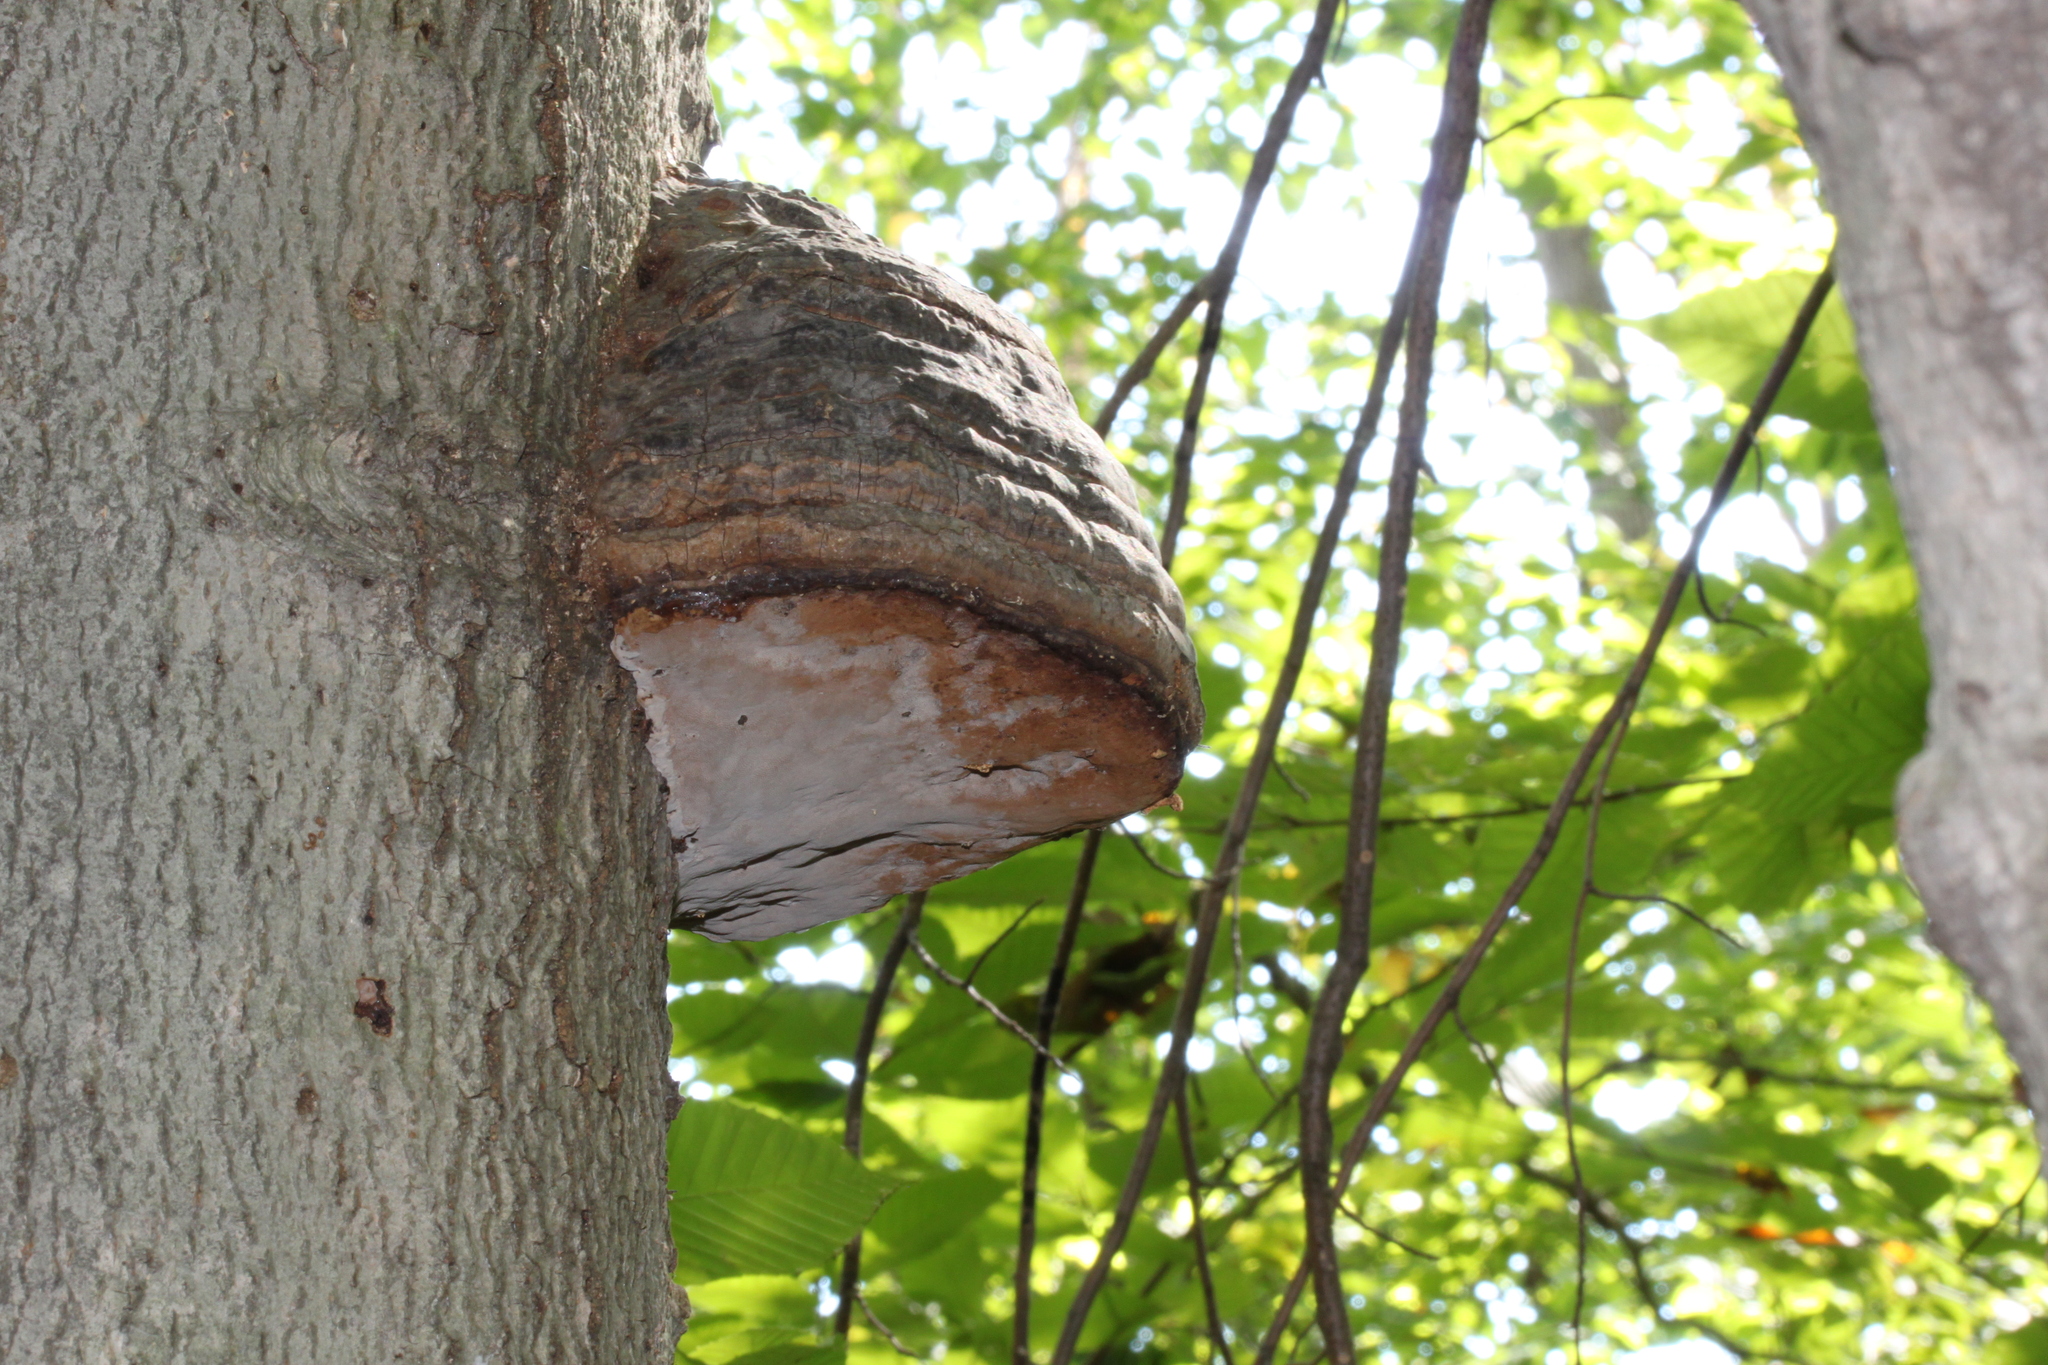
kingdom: Fungi
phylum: Basidiomycota
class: Agaricomycetes
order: Polyporales
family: Polyporaceae
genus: Fomes
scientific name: Fomes fomentarius
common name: Hoof fungus
